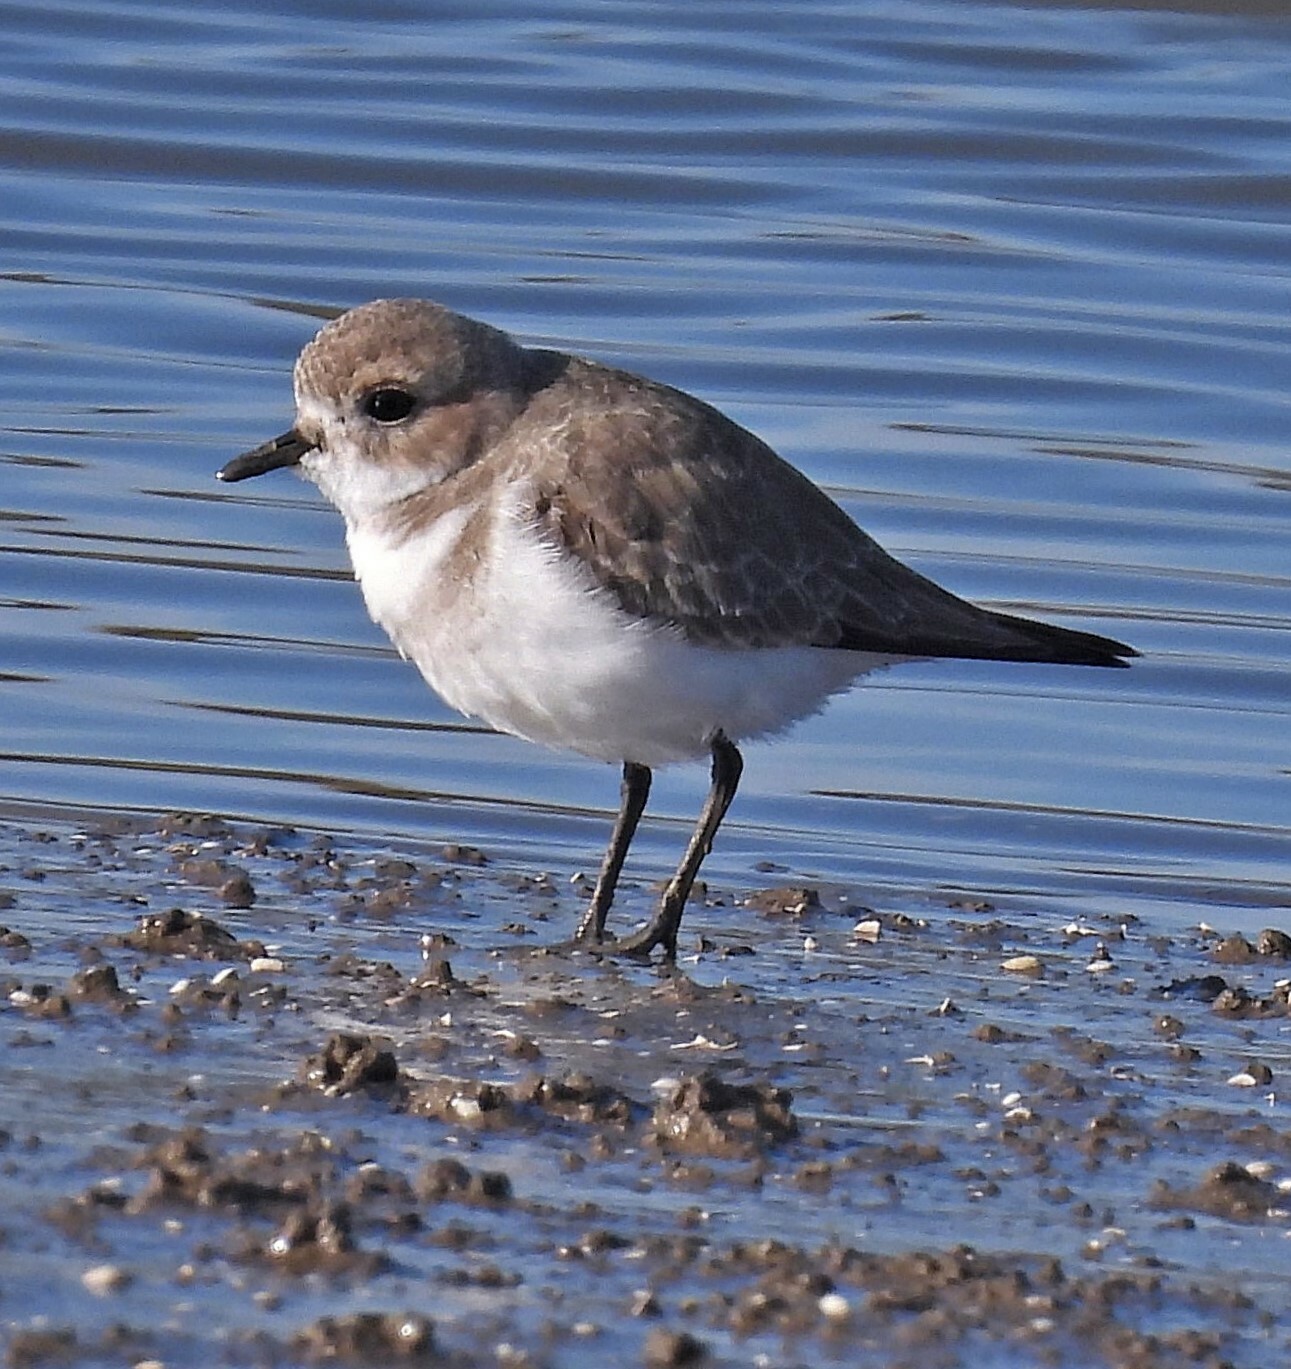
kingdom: Animalia
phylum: Chordata
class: Aves
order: Charadriiformes
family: Charadriidae
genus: Anarhynchus
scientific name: Anarhynchus
